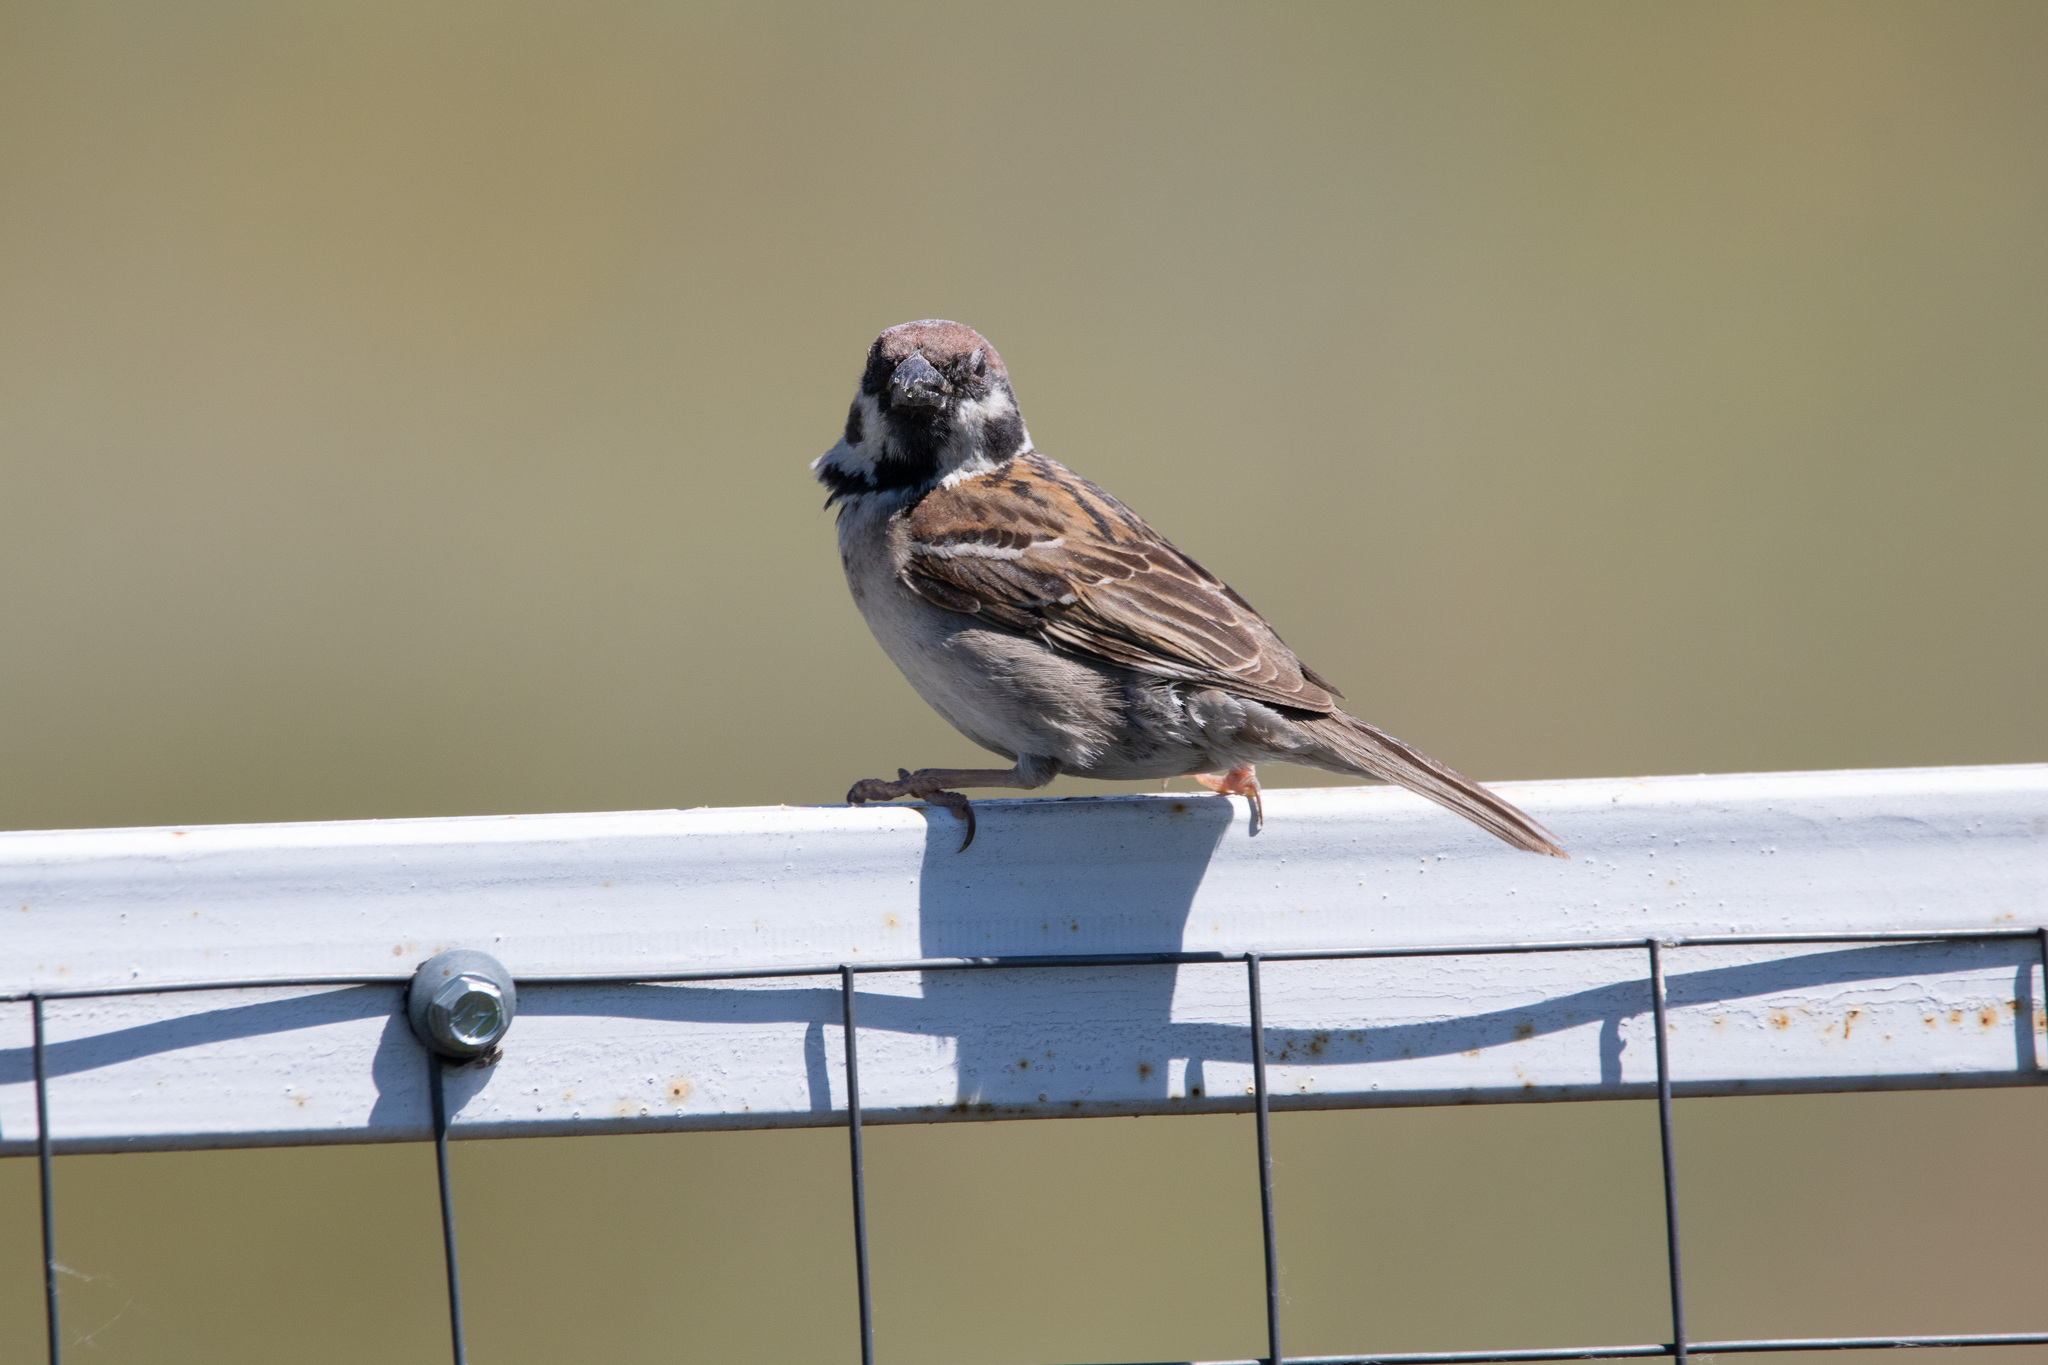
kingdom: Animalia
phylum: Chordata
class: Aves
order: Passeriformes
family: Passeridae
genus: Passer
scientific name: Passer montanus
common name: Eurasian tree sparrow
